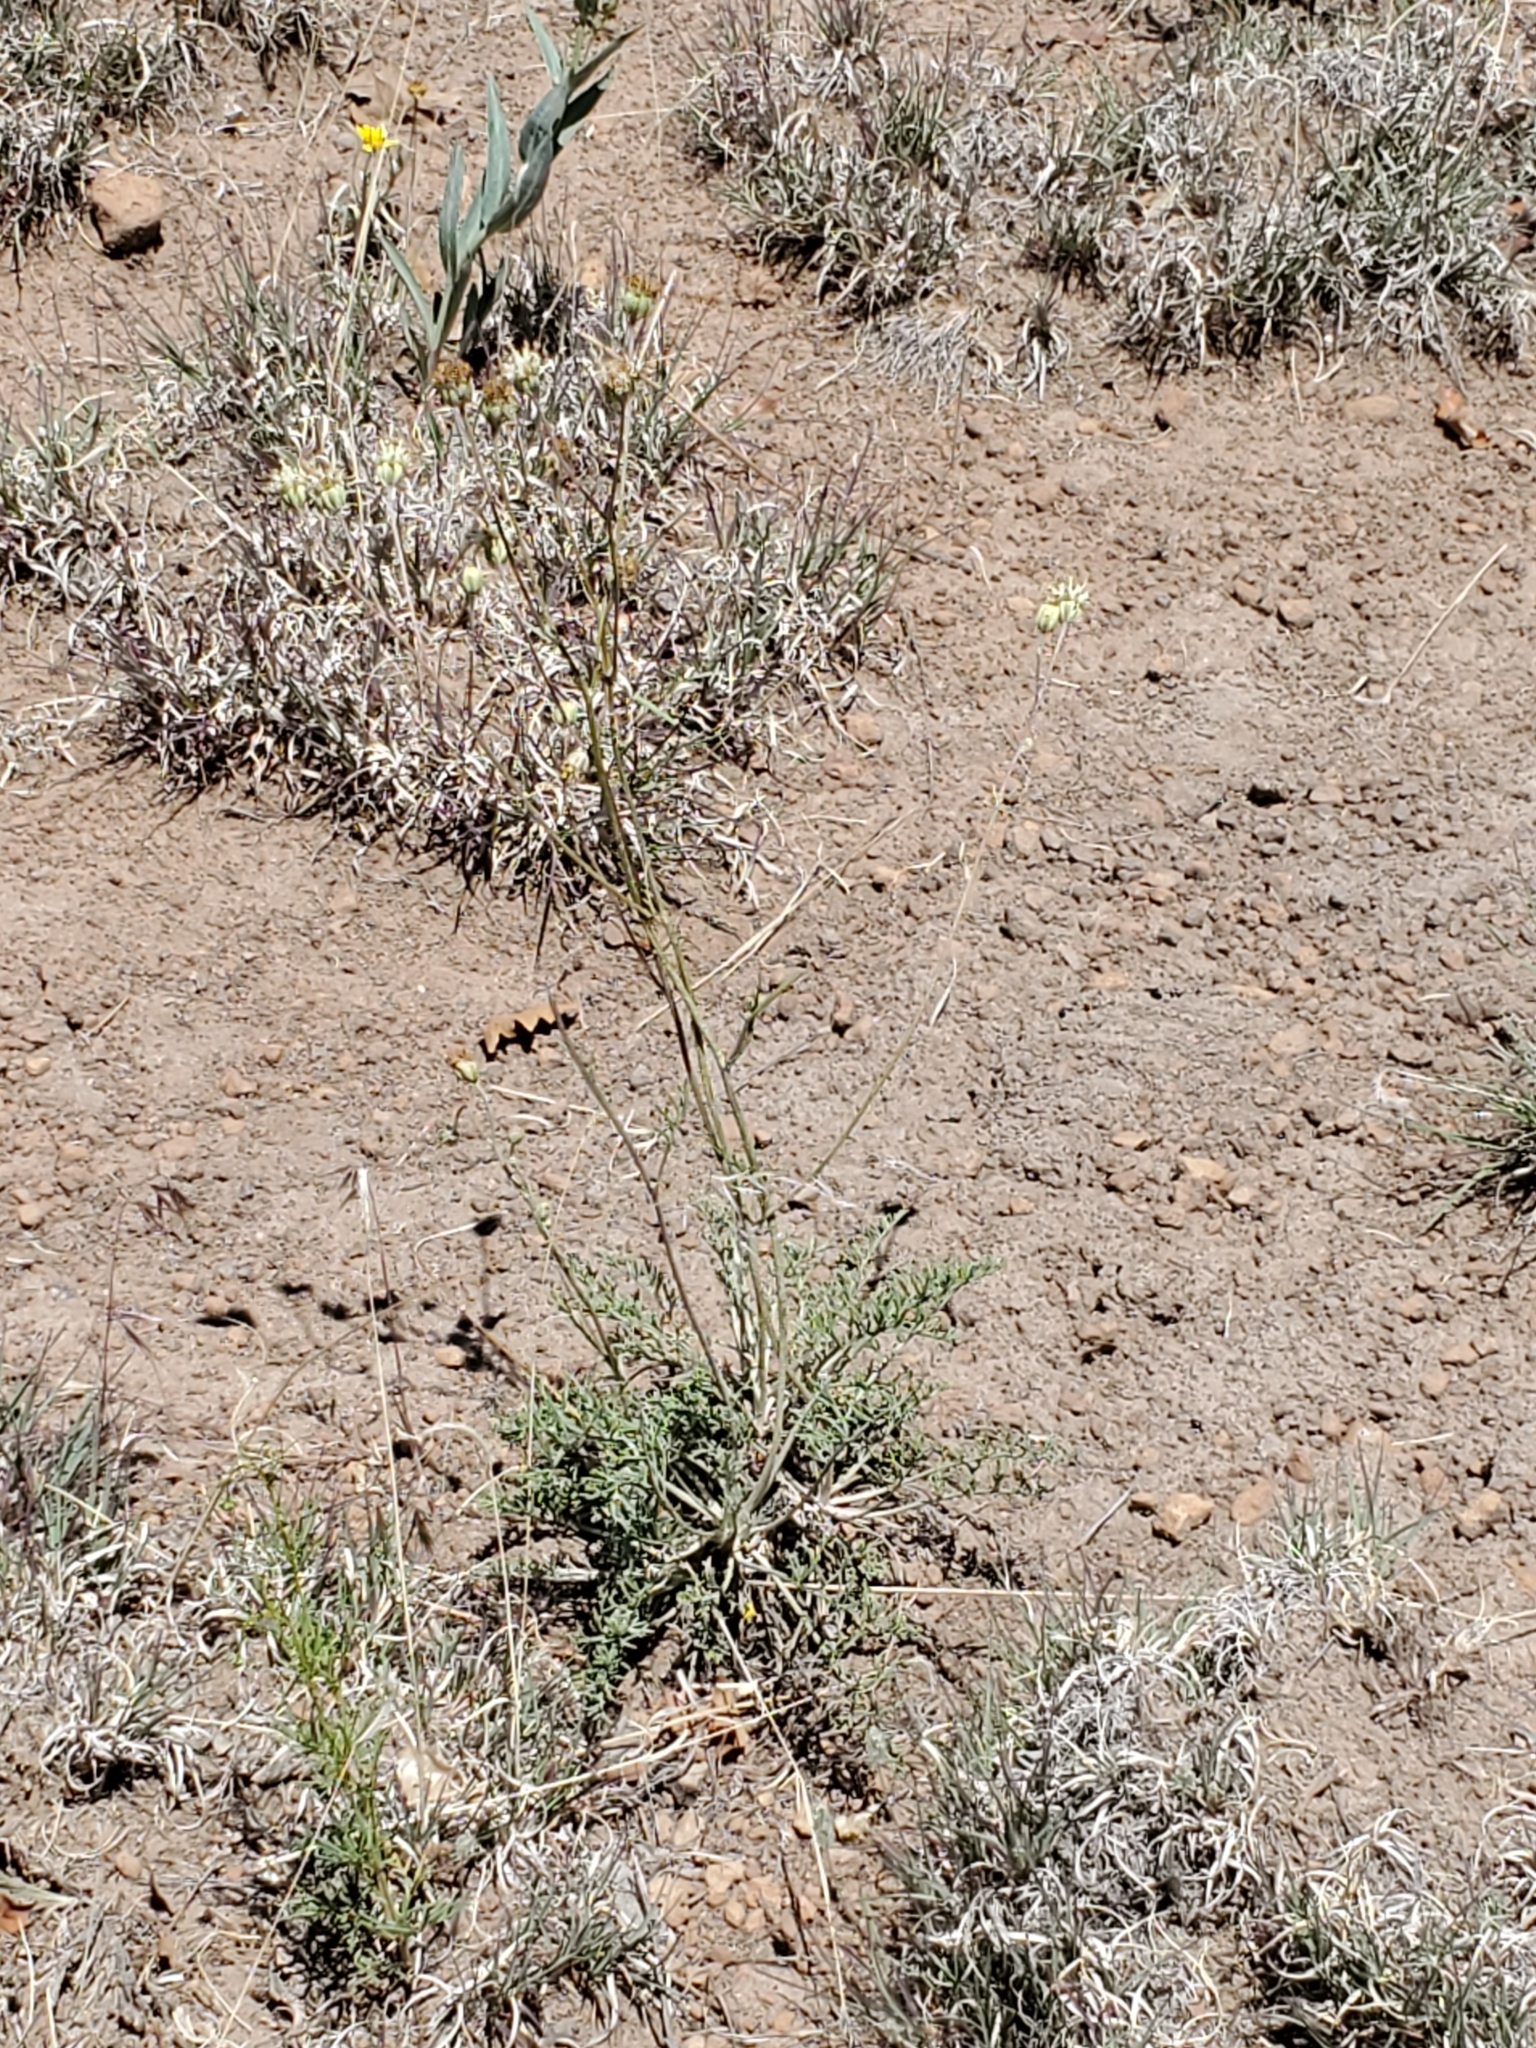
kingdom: Plantae
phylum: Tracheophyta
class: Magnoliopsida
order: Asterales
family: Asteraceae
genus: Hymenopappus
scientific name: Hymenopappus filifolius
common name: Columbia cutleaf
